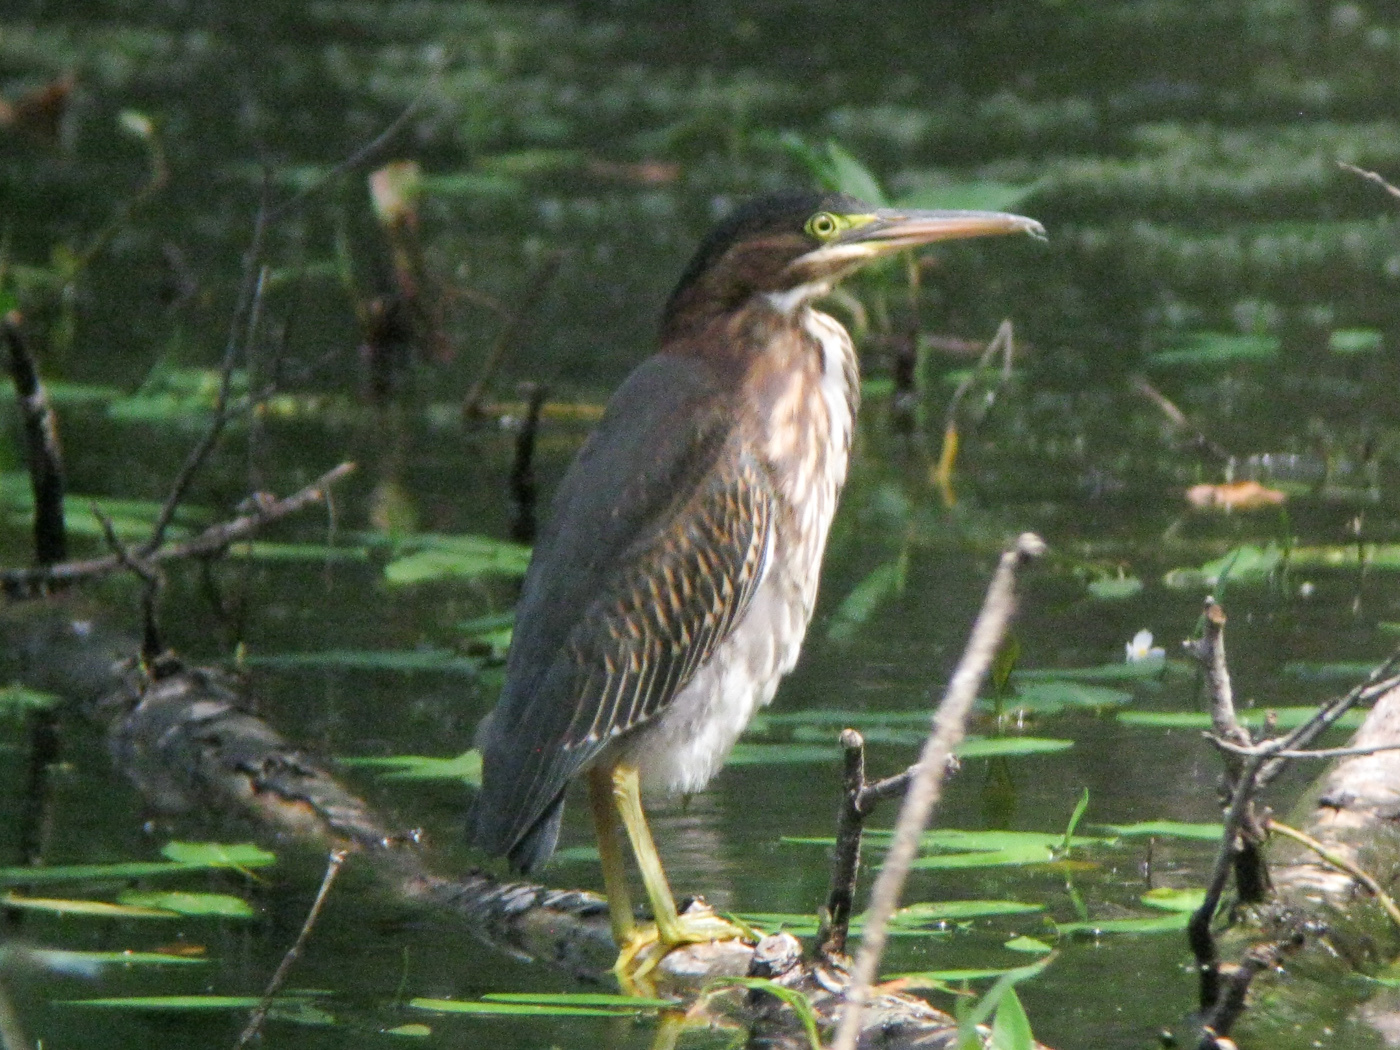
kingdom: Animalia
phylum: Chordata
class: Aves
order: Pelecaniformes
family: Ardeidae
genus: Butorides
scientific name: Butorides virescens
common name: Green heron
